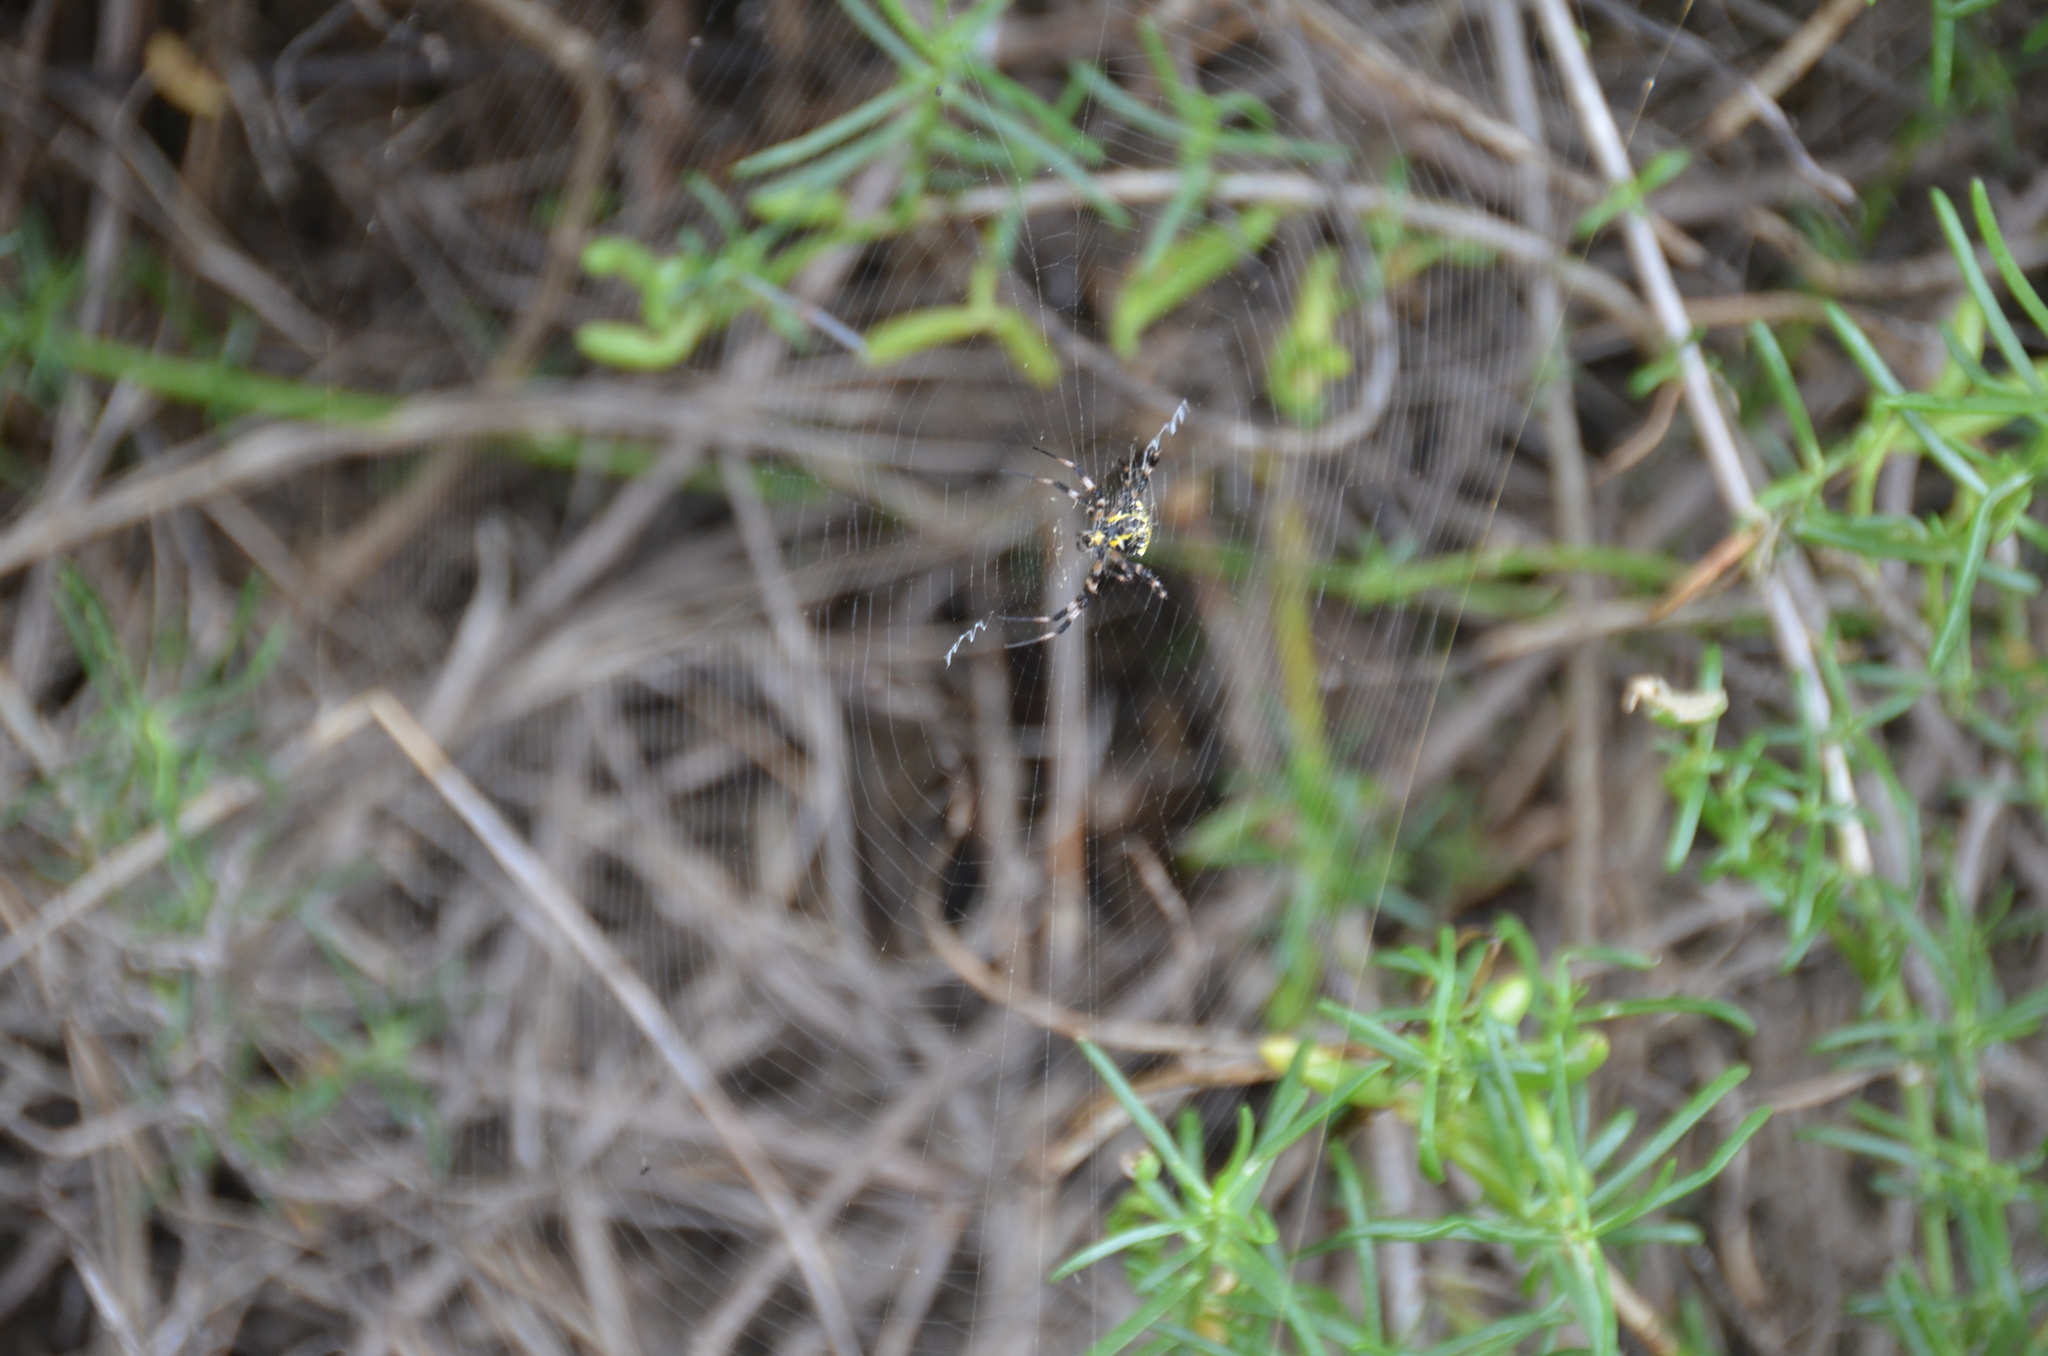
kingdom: Animalia
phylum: Arthropoda
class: Arachnida
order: Araneae
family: Araneidae
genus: Argiope
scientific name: Argiope appensa
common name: Garden spider
